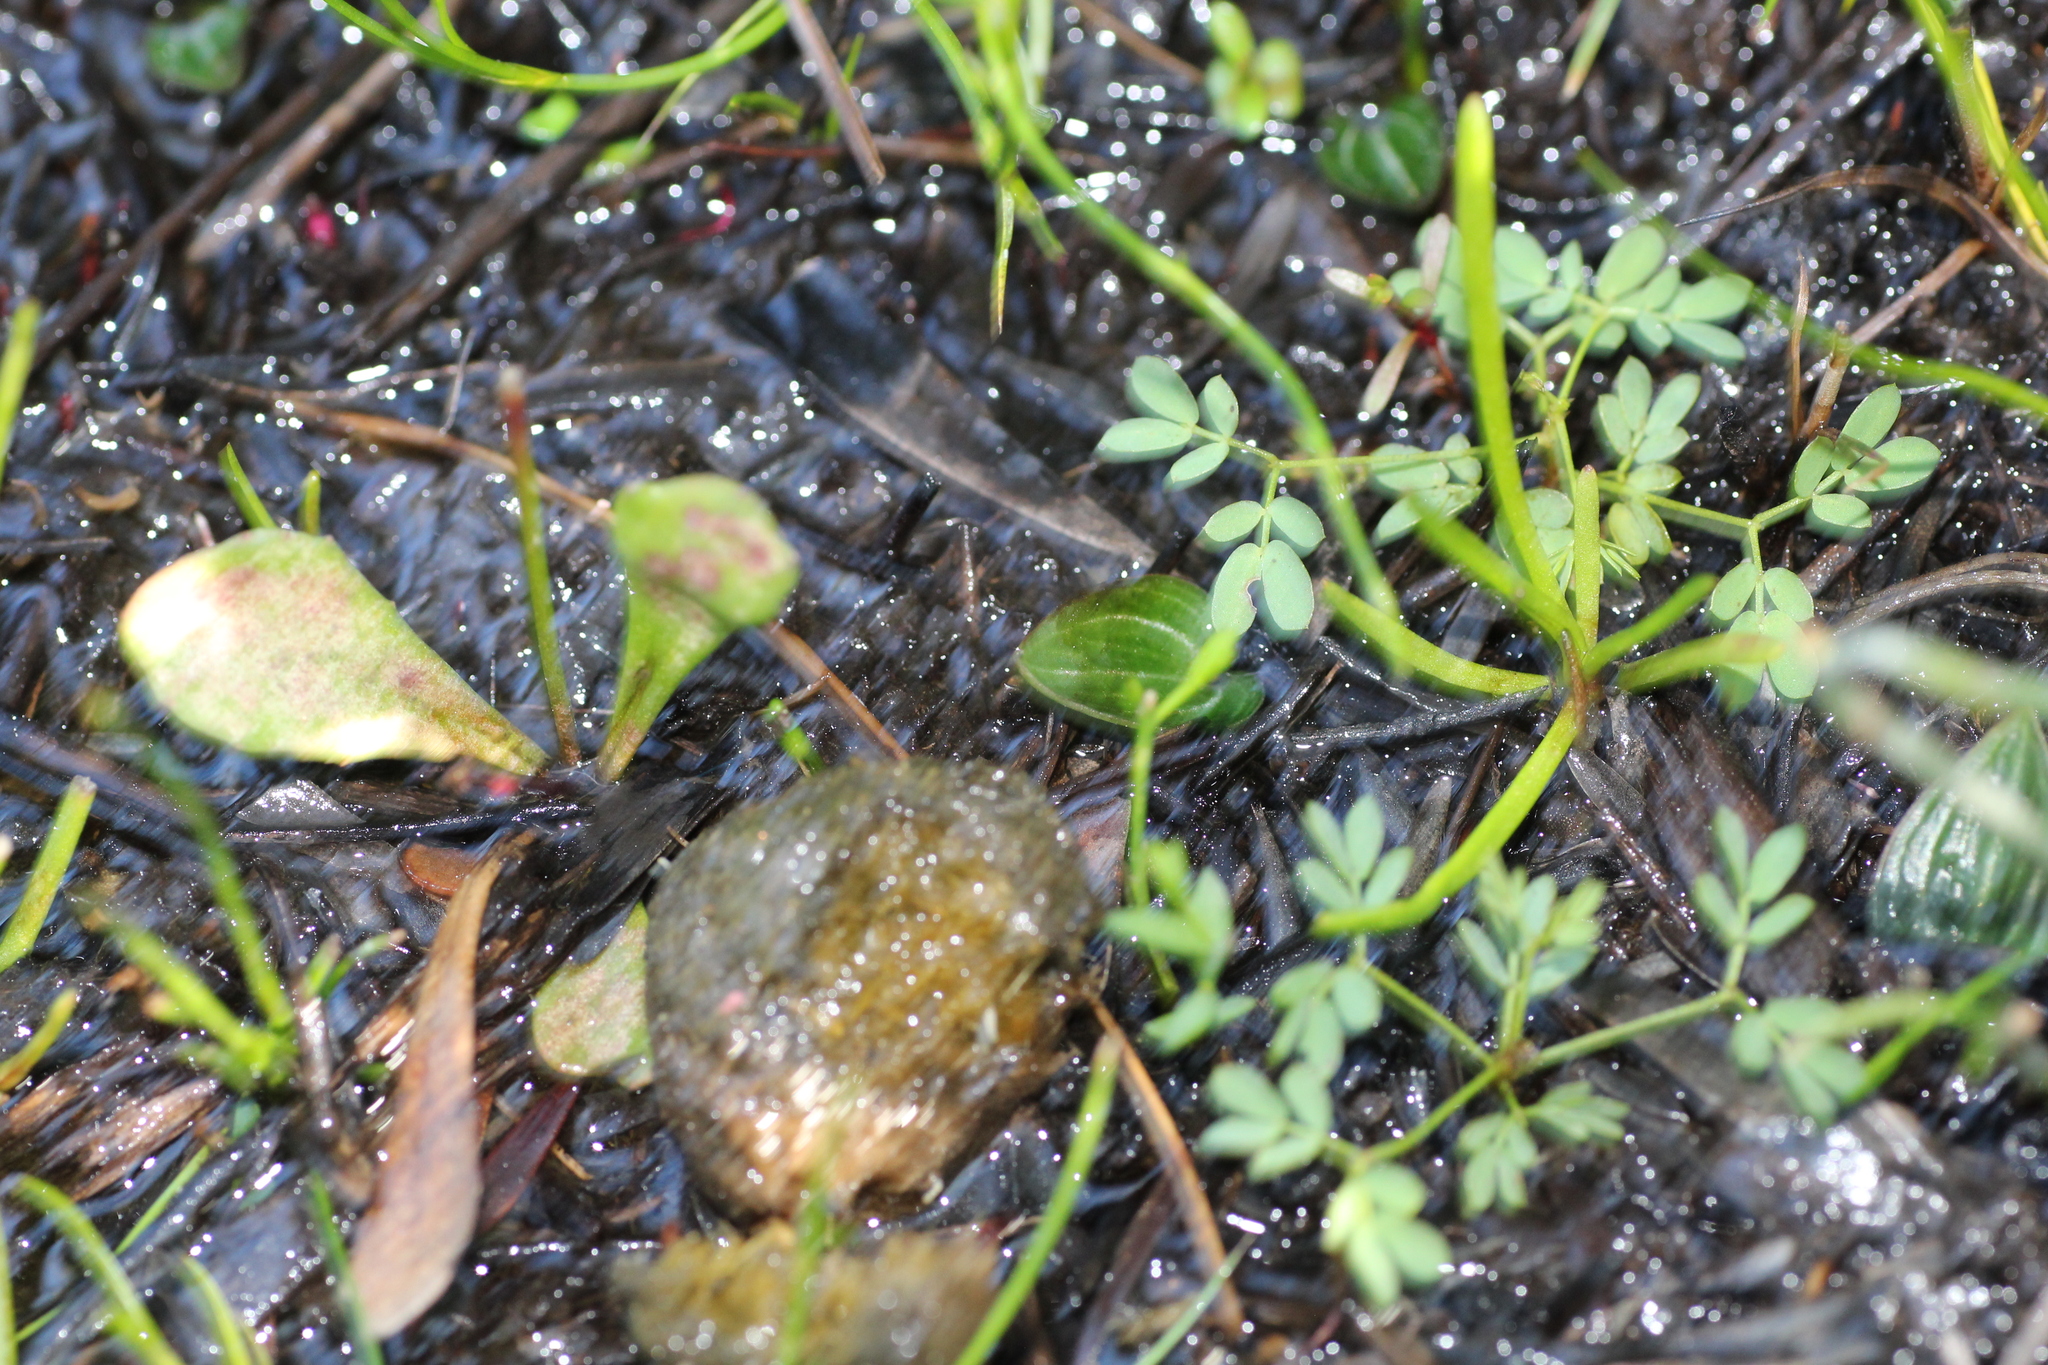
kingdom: Plantae
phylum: Tracheophyta
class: Liliopsida
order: Asparagales
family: Orchidaceae
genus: Eriochilus
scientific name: Eriochilus scaber
